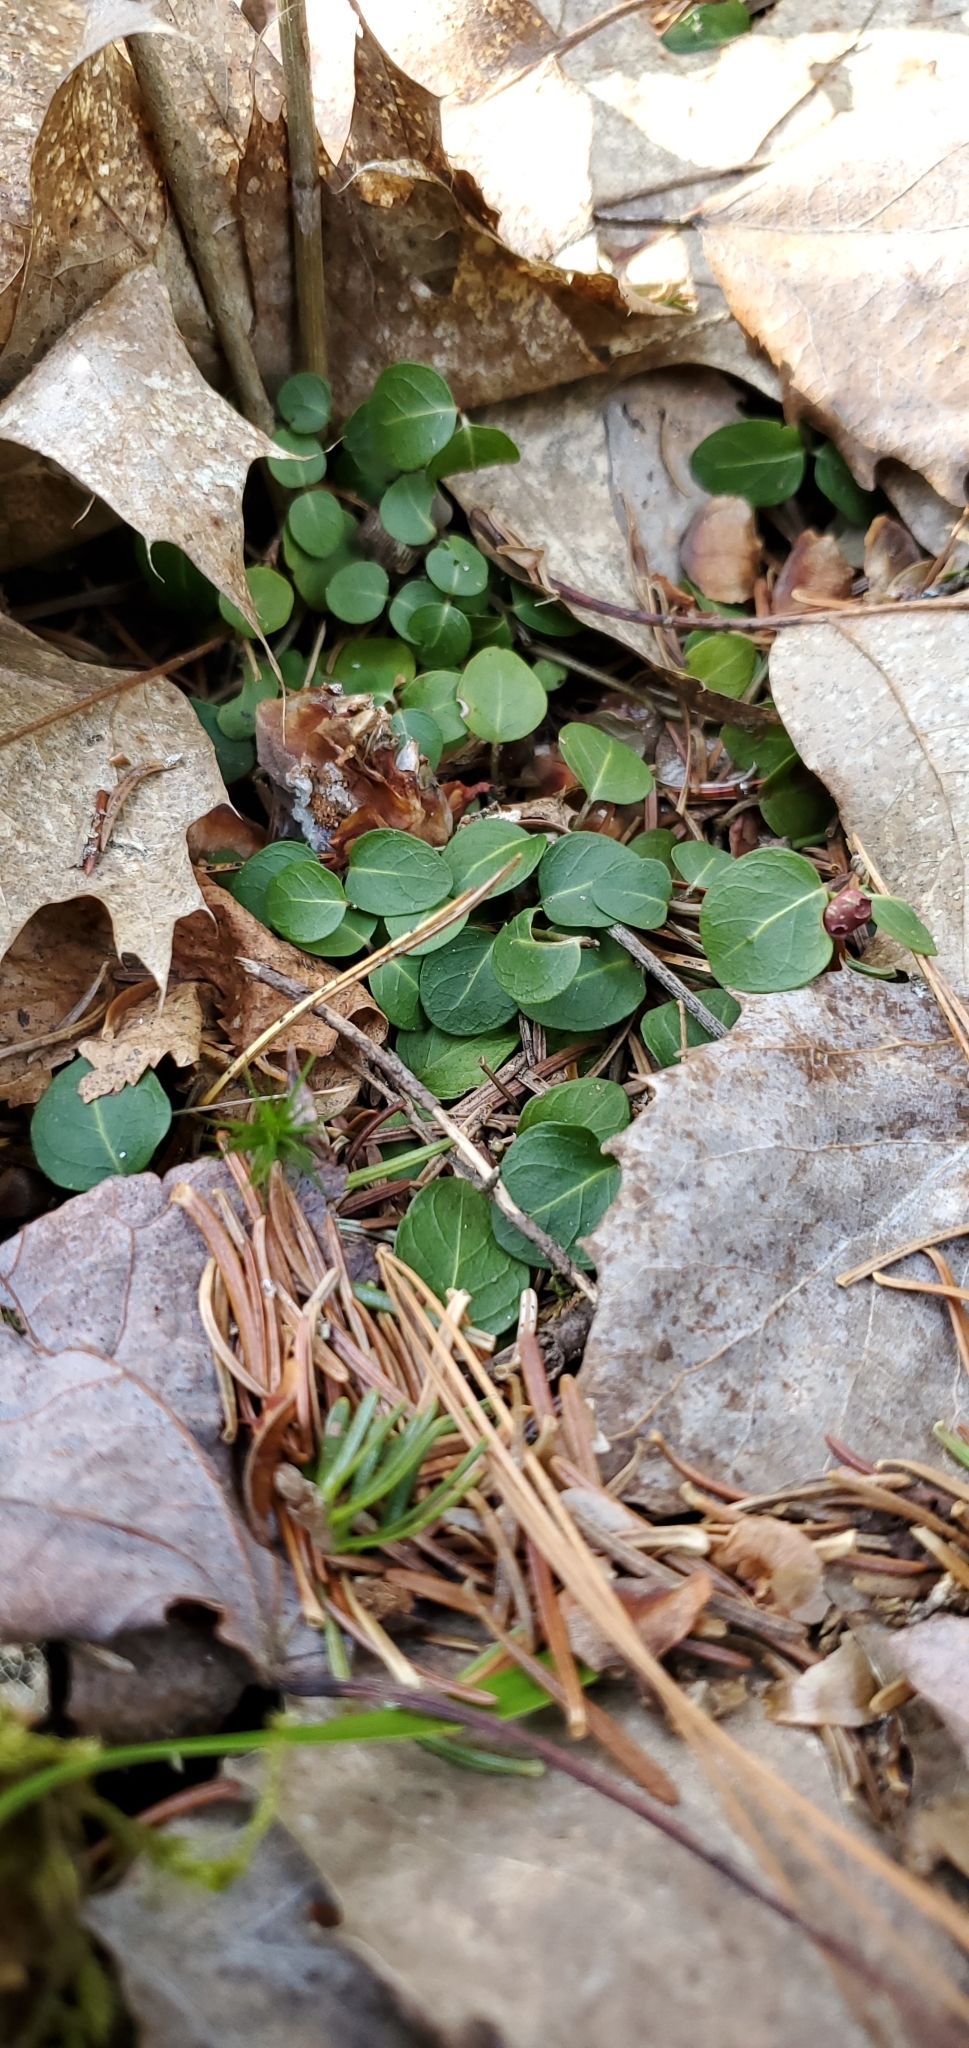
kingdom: Plantae
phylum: Tracheophyta
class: Magnoliopsida
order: Gentianales
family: Rubiaceae
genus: Mitchella
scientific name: Mitchella repens
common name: Partridge-berry
